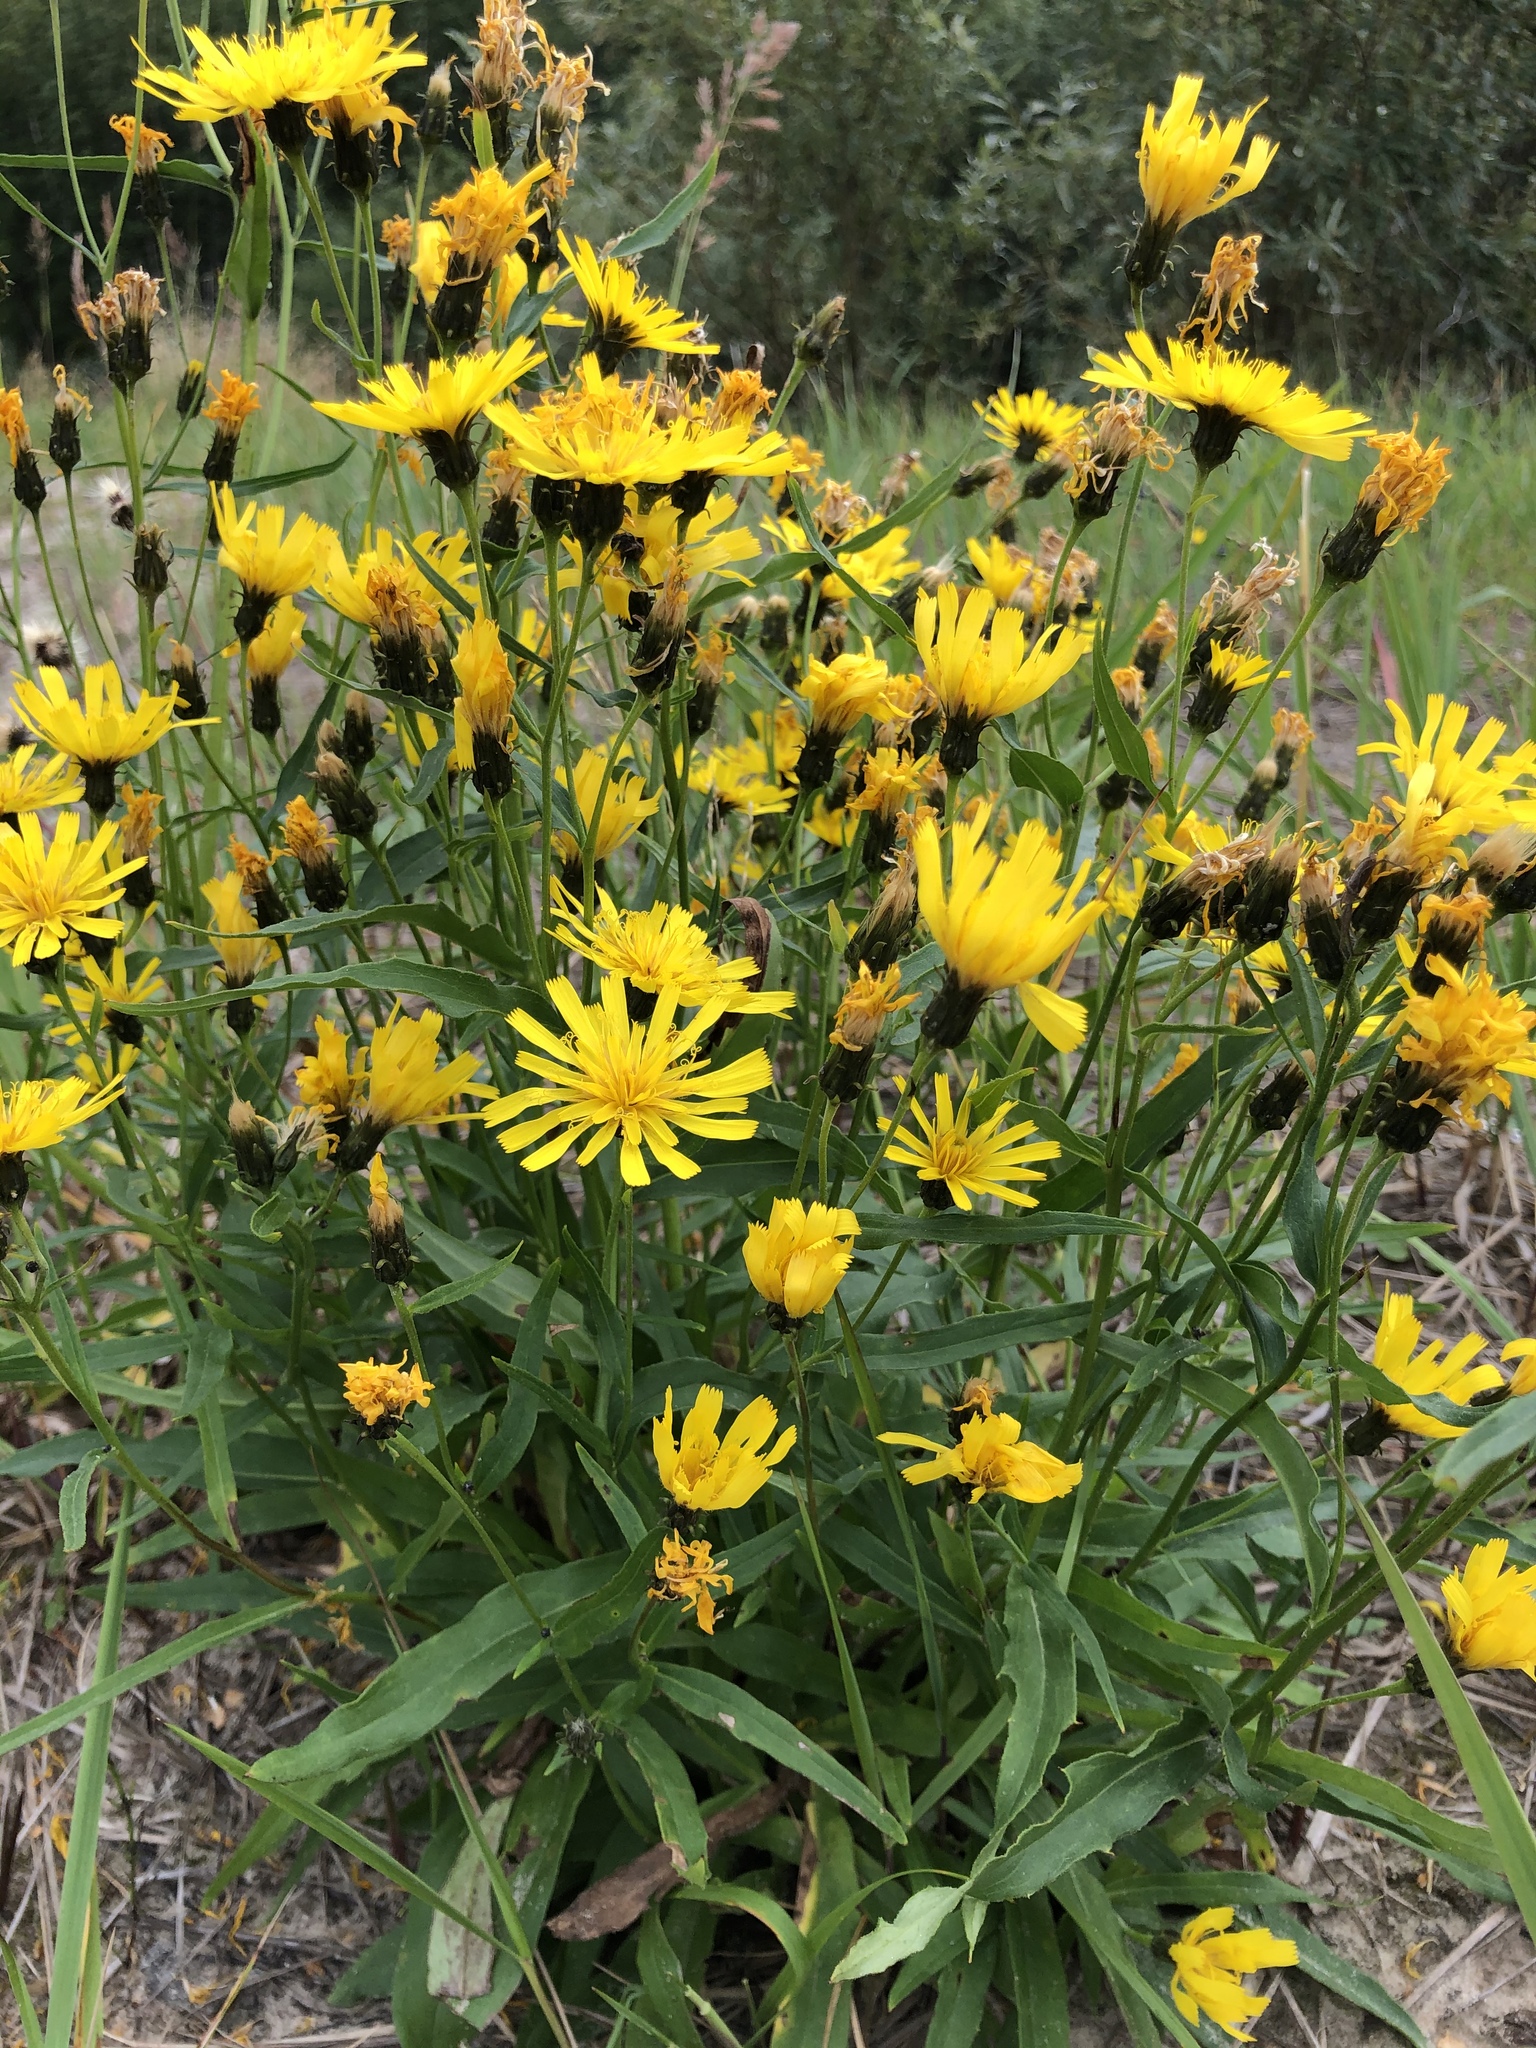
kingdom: Plantae
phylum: Tracheophyta
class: Magnoliopsida
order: Asterales
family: Asteraceae
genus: Hieracium
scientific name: Hieracium umbellatum
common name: Northern hawkweed
